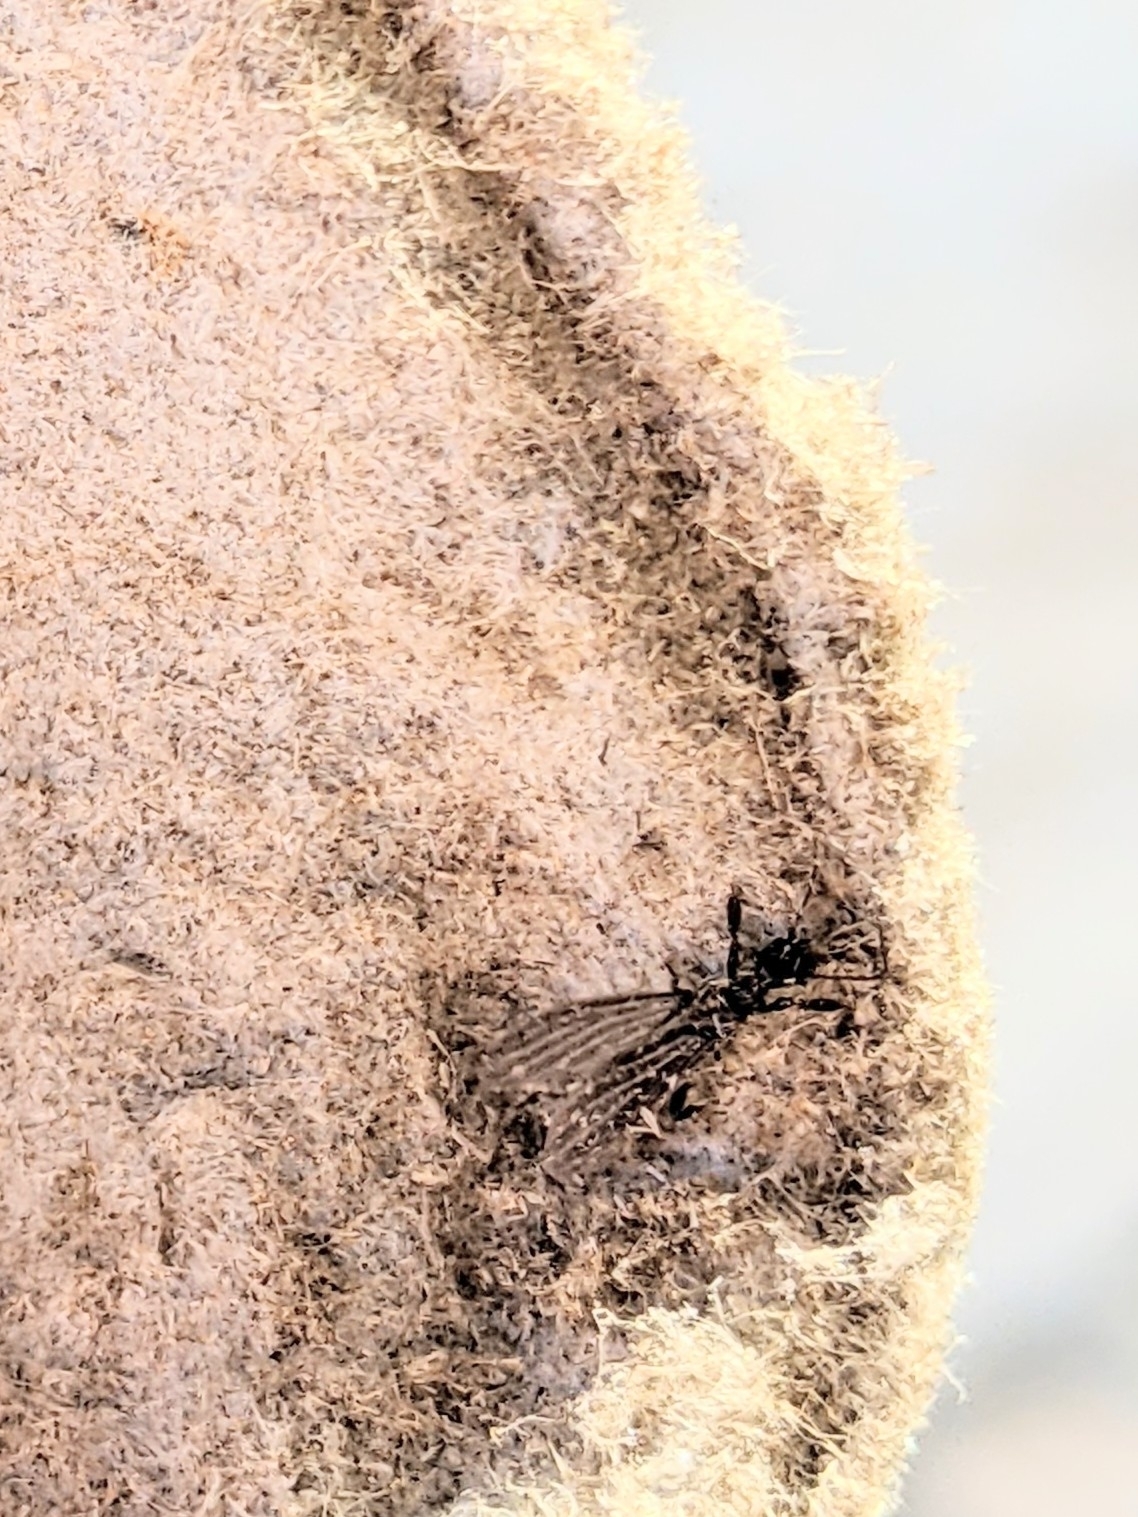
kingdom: Animalia
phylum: Arthropoda
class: Insecta
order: Embioptera
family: Oligotomidae
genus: Oligotoma
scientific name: Oligotoma nigra
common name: Black webspinner
